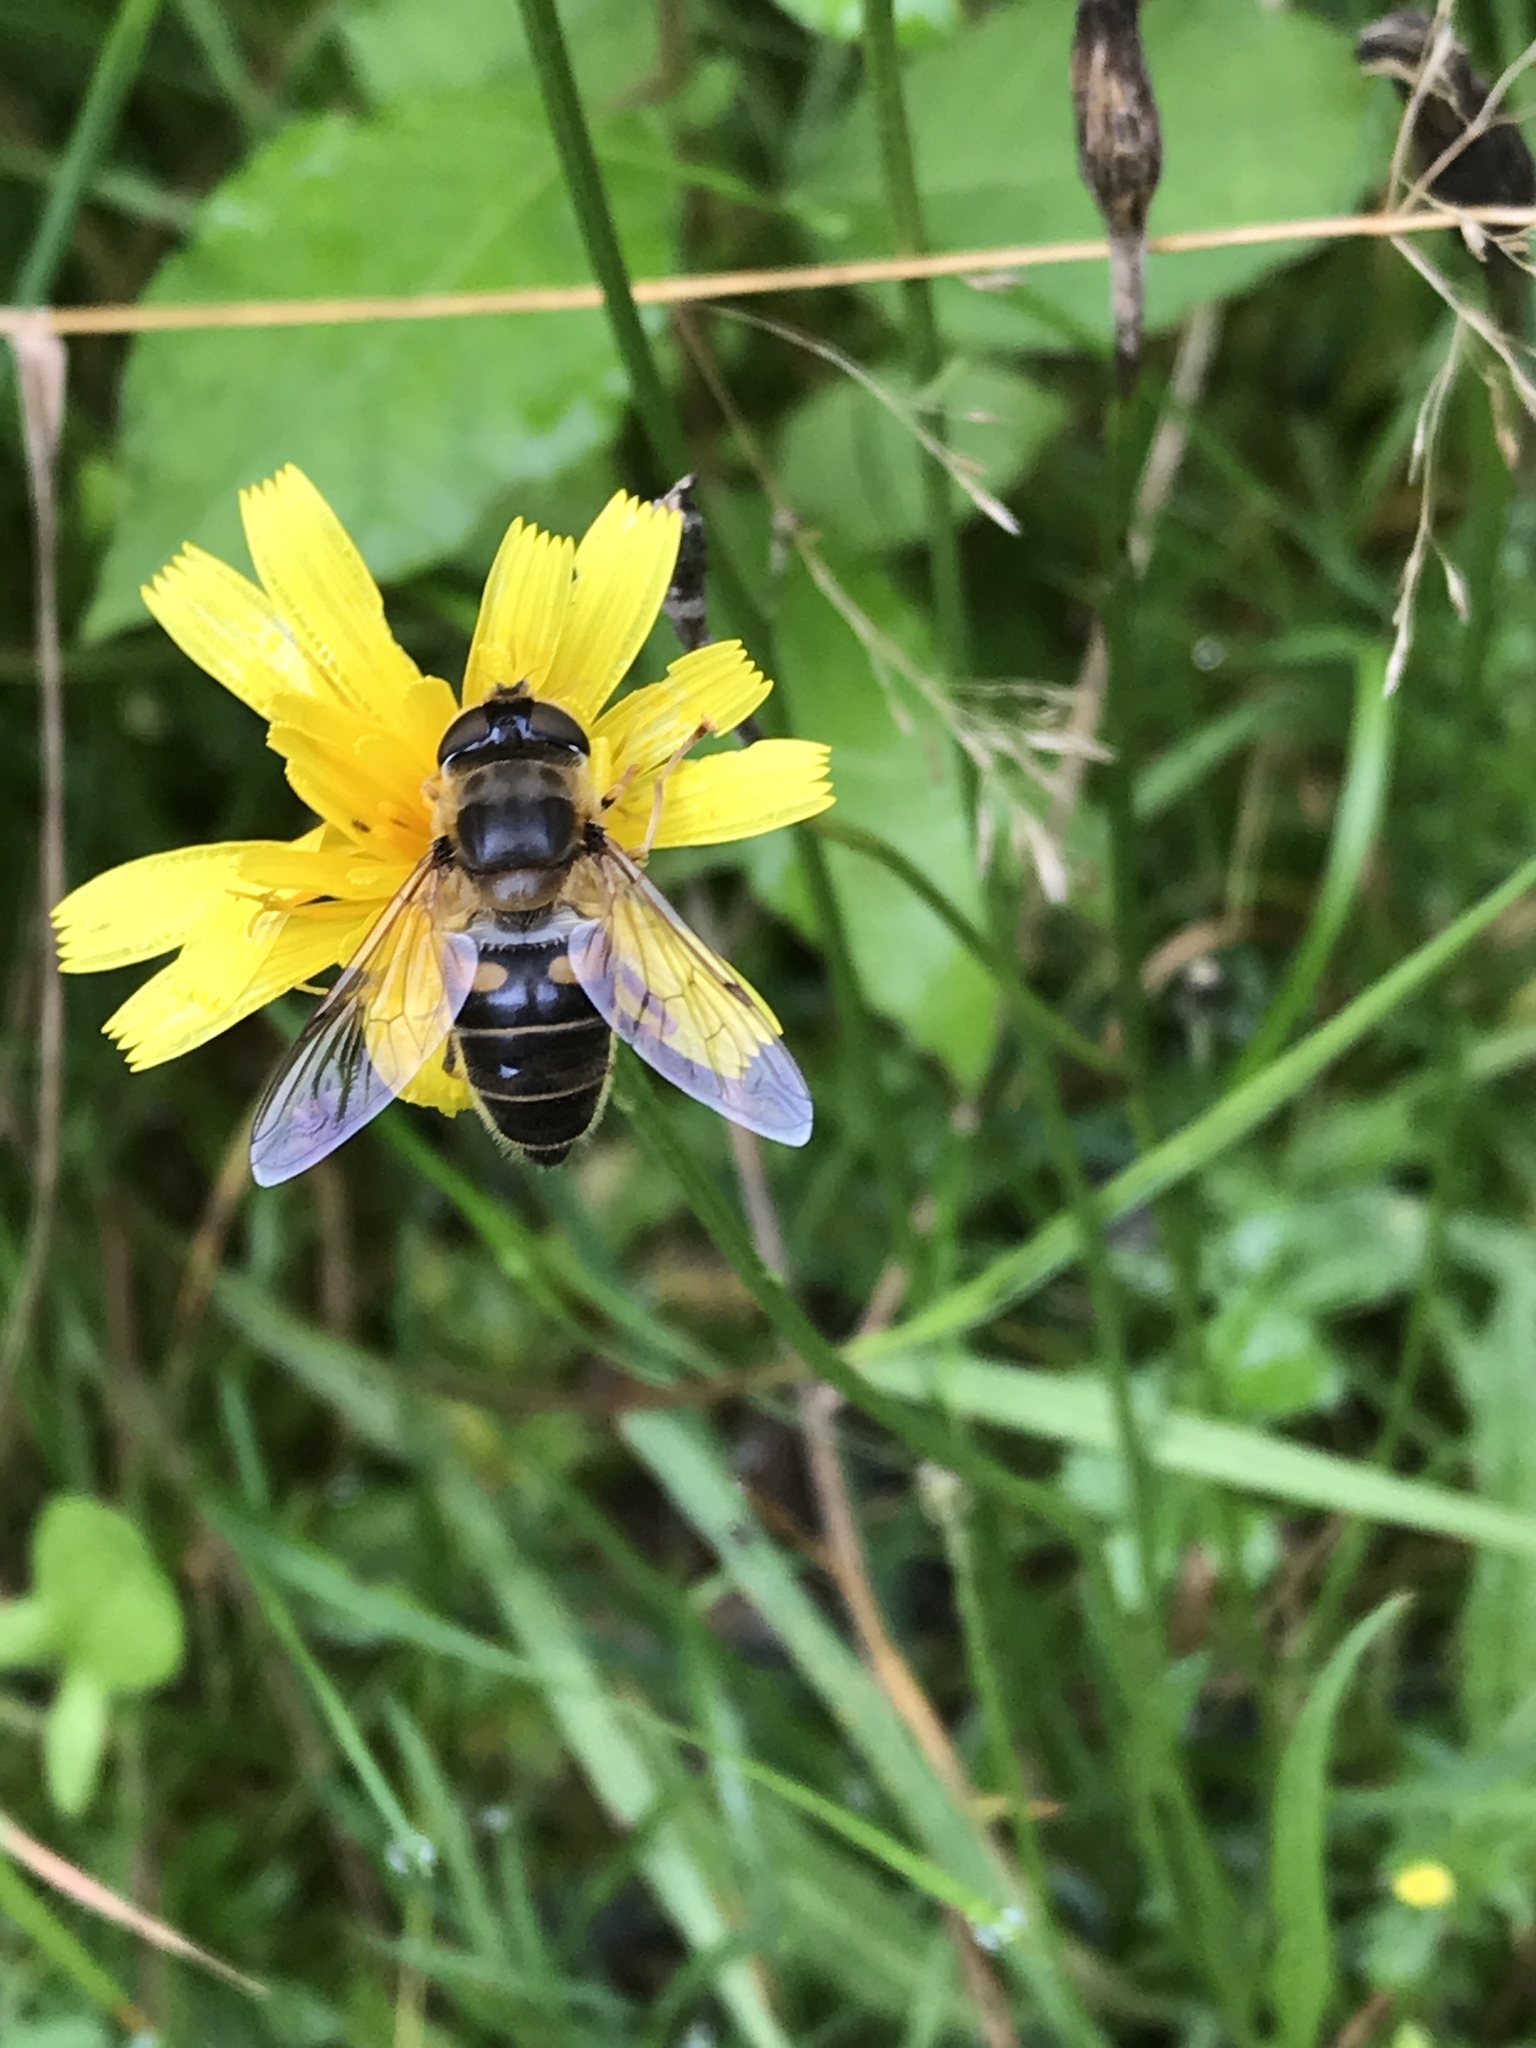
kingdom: Animalia
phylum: Arthropoda
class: Insecta
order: Diptera
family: Syrphidae
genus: Eristalis
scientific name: Eristalis pertinax
